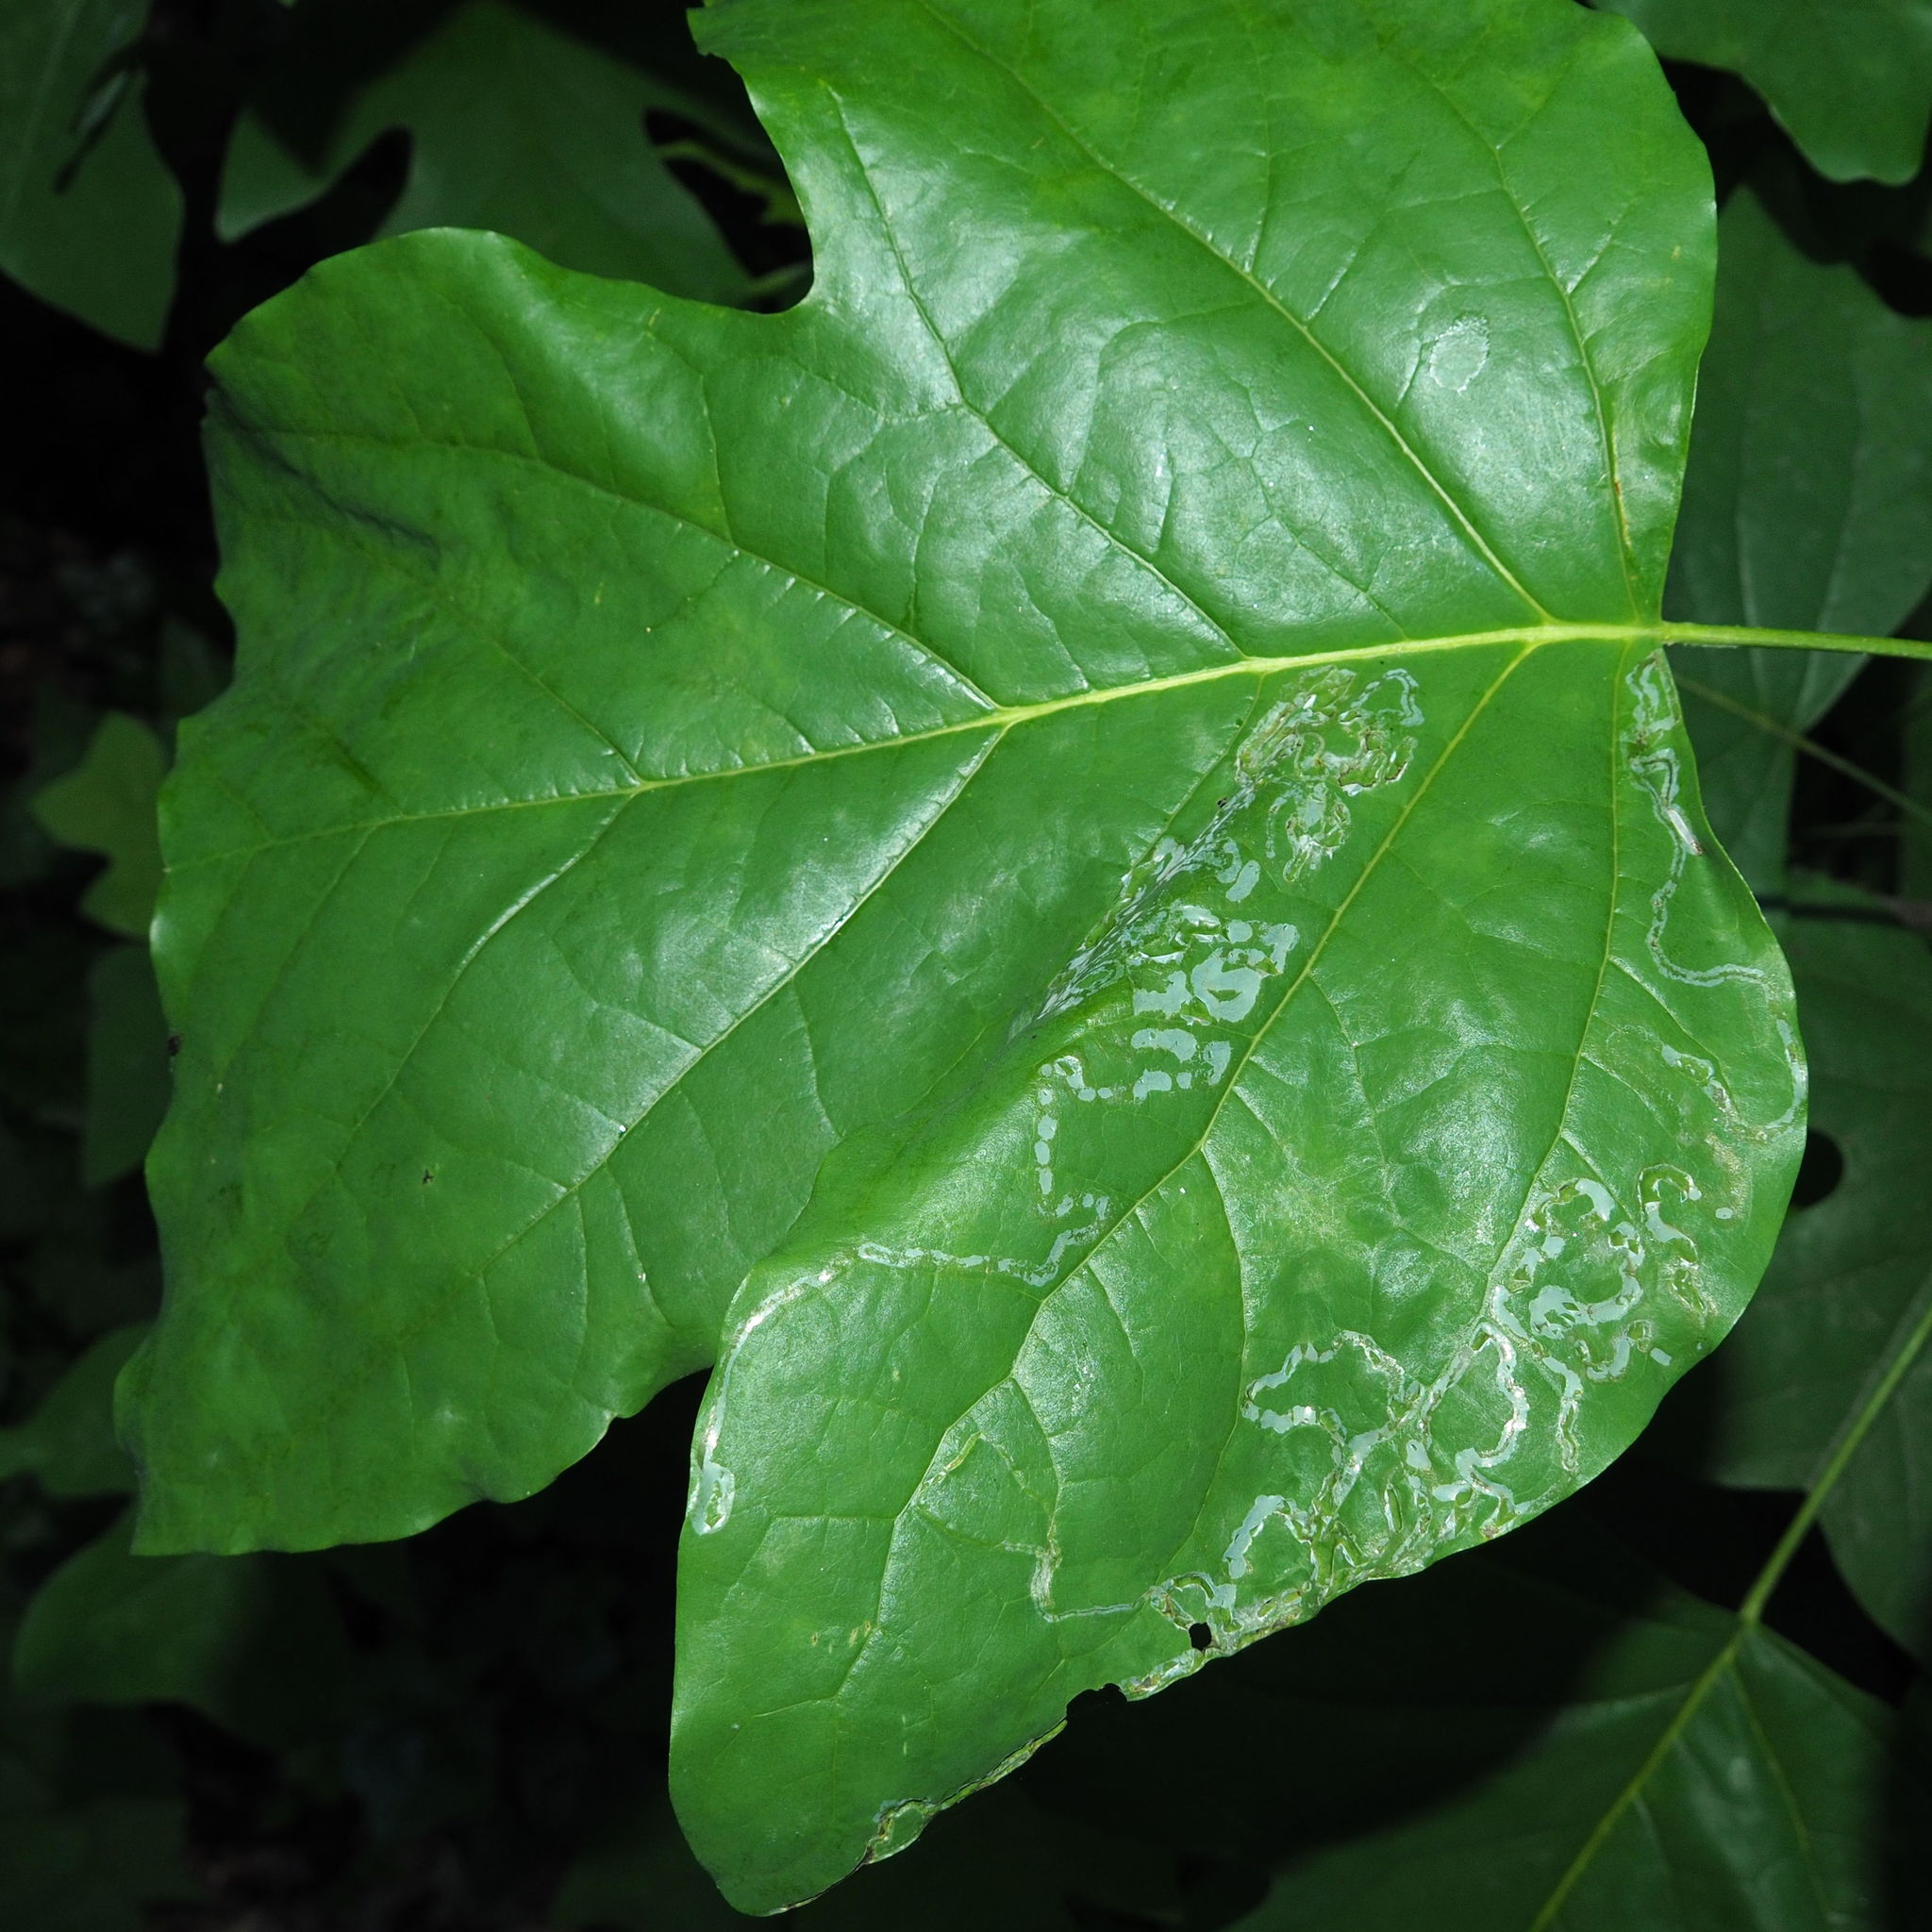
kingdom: Animalia
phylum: Arthropoda
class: Insecta
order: Lepidoptera
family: Gracillariidae
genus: Phyllocnistis
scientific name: Phyllocnistis liriodendronella
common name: Tulip tree leaf miner
